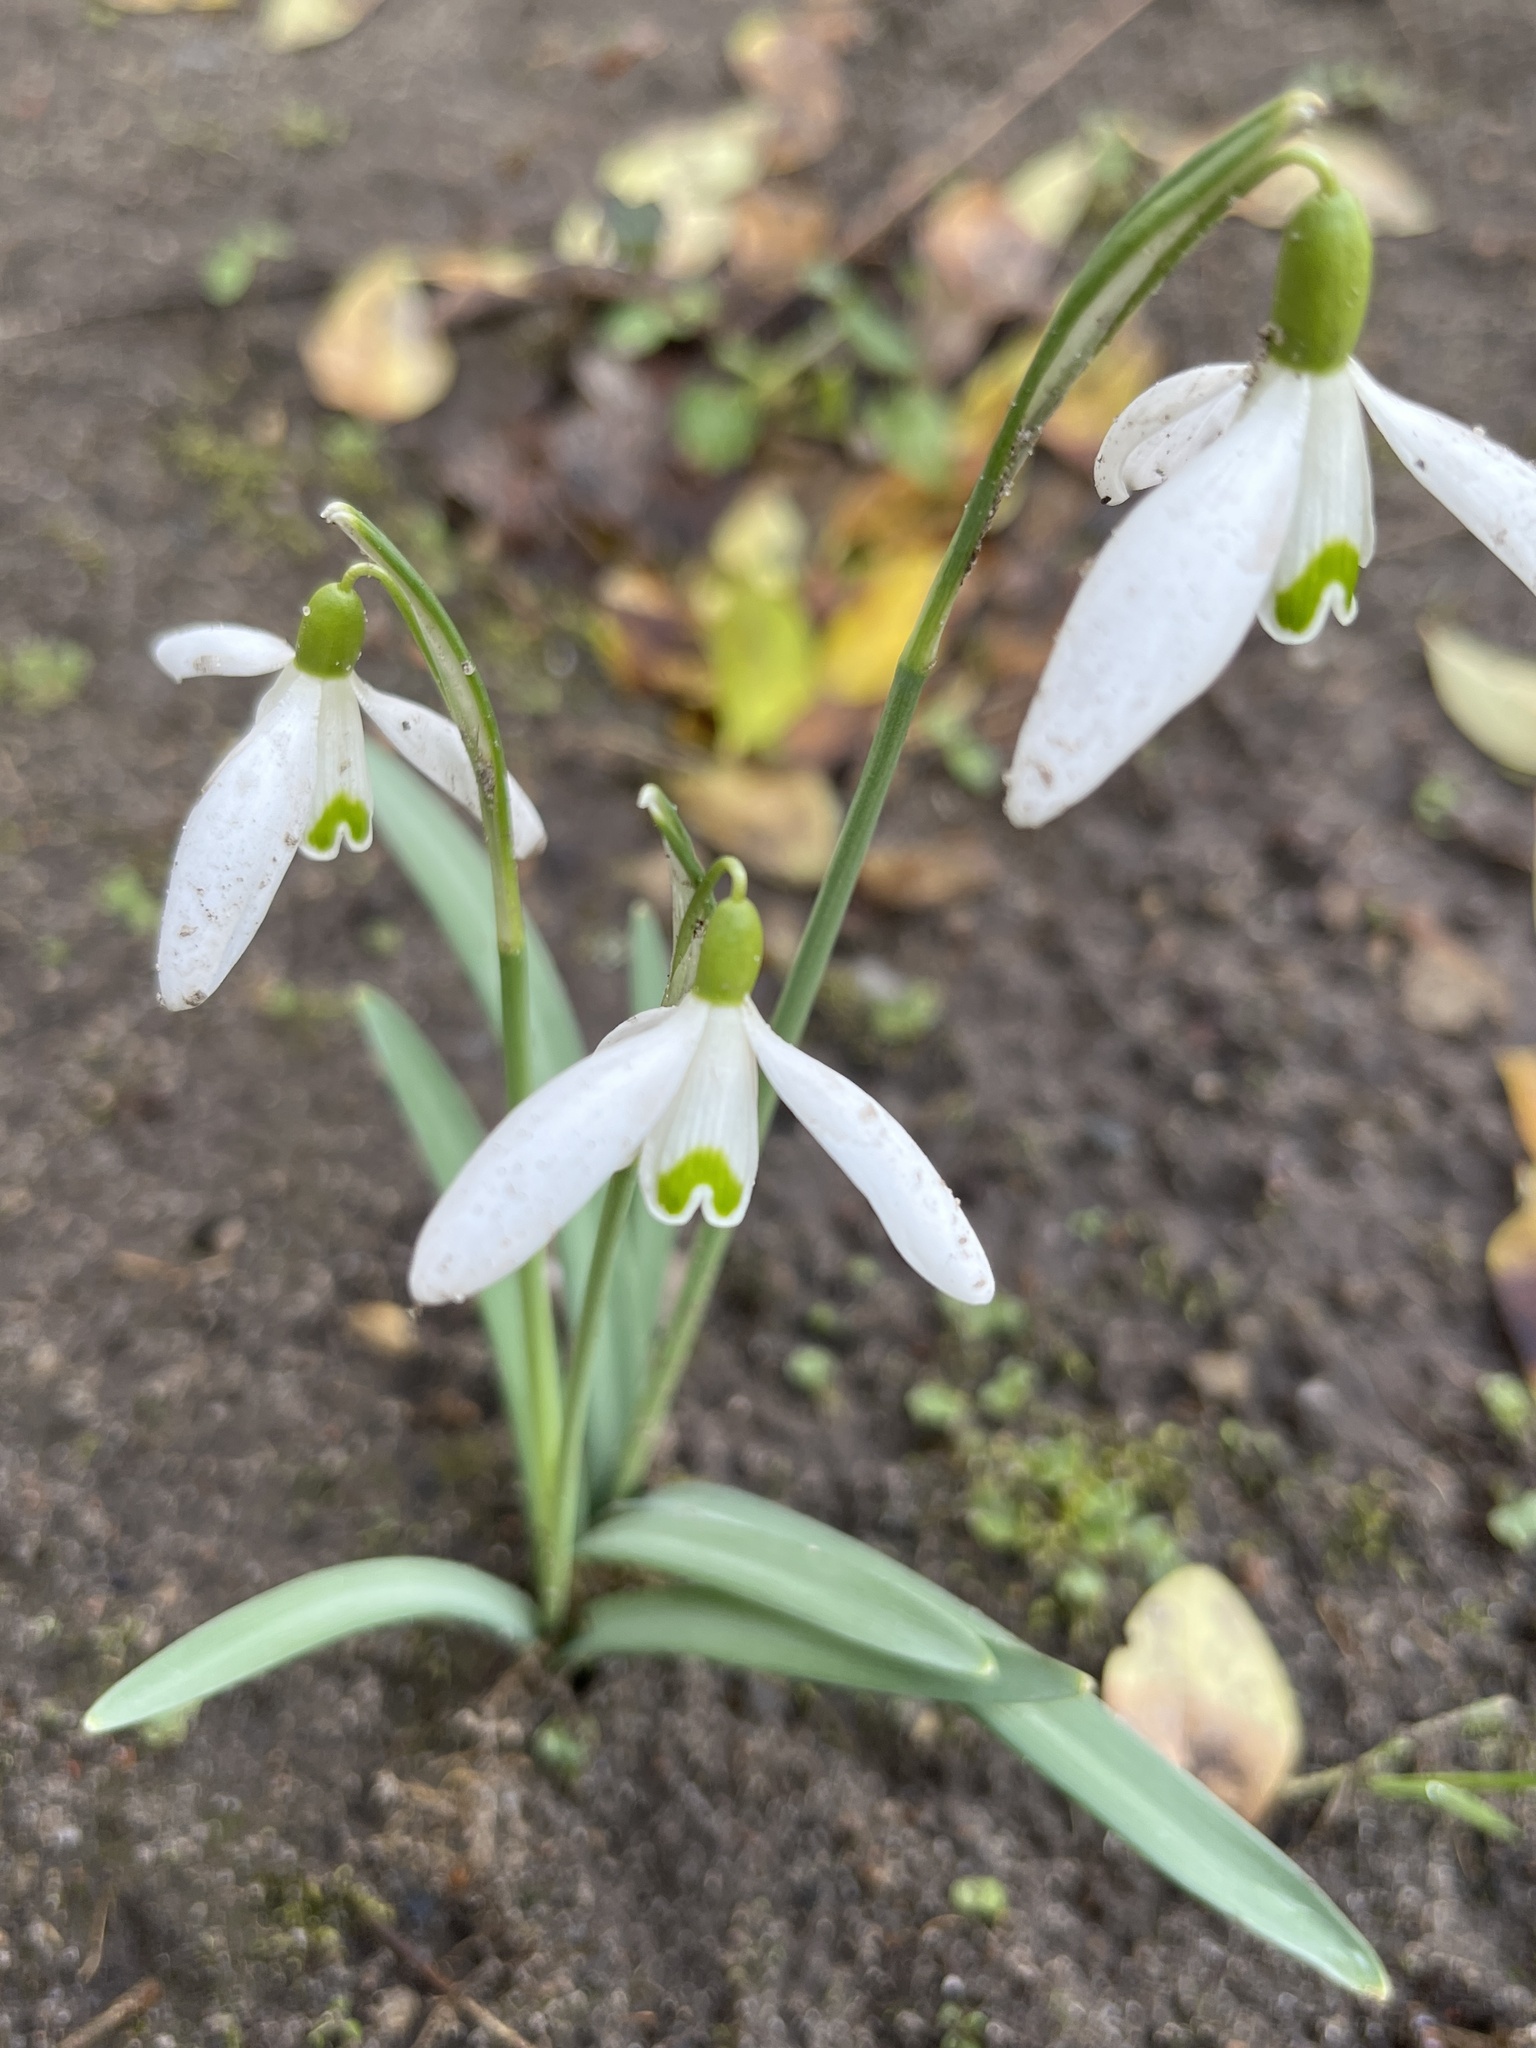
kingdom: Plantae
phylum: Tracheophyta
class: Liliopsida
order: Asparagales
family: Amaryllidaceae
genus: Galanthus
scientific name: Galanthus nivalis
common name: Snowdrop
